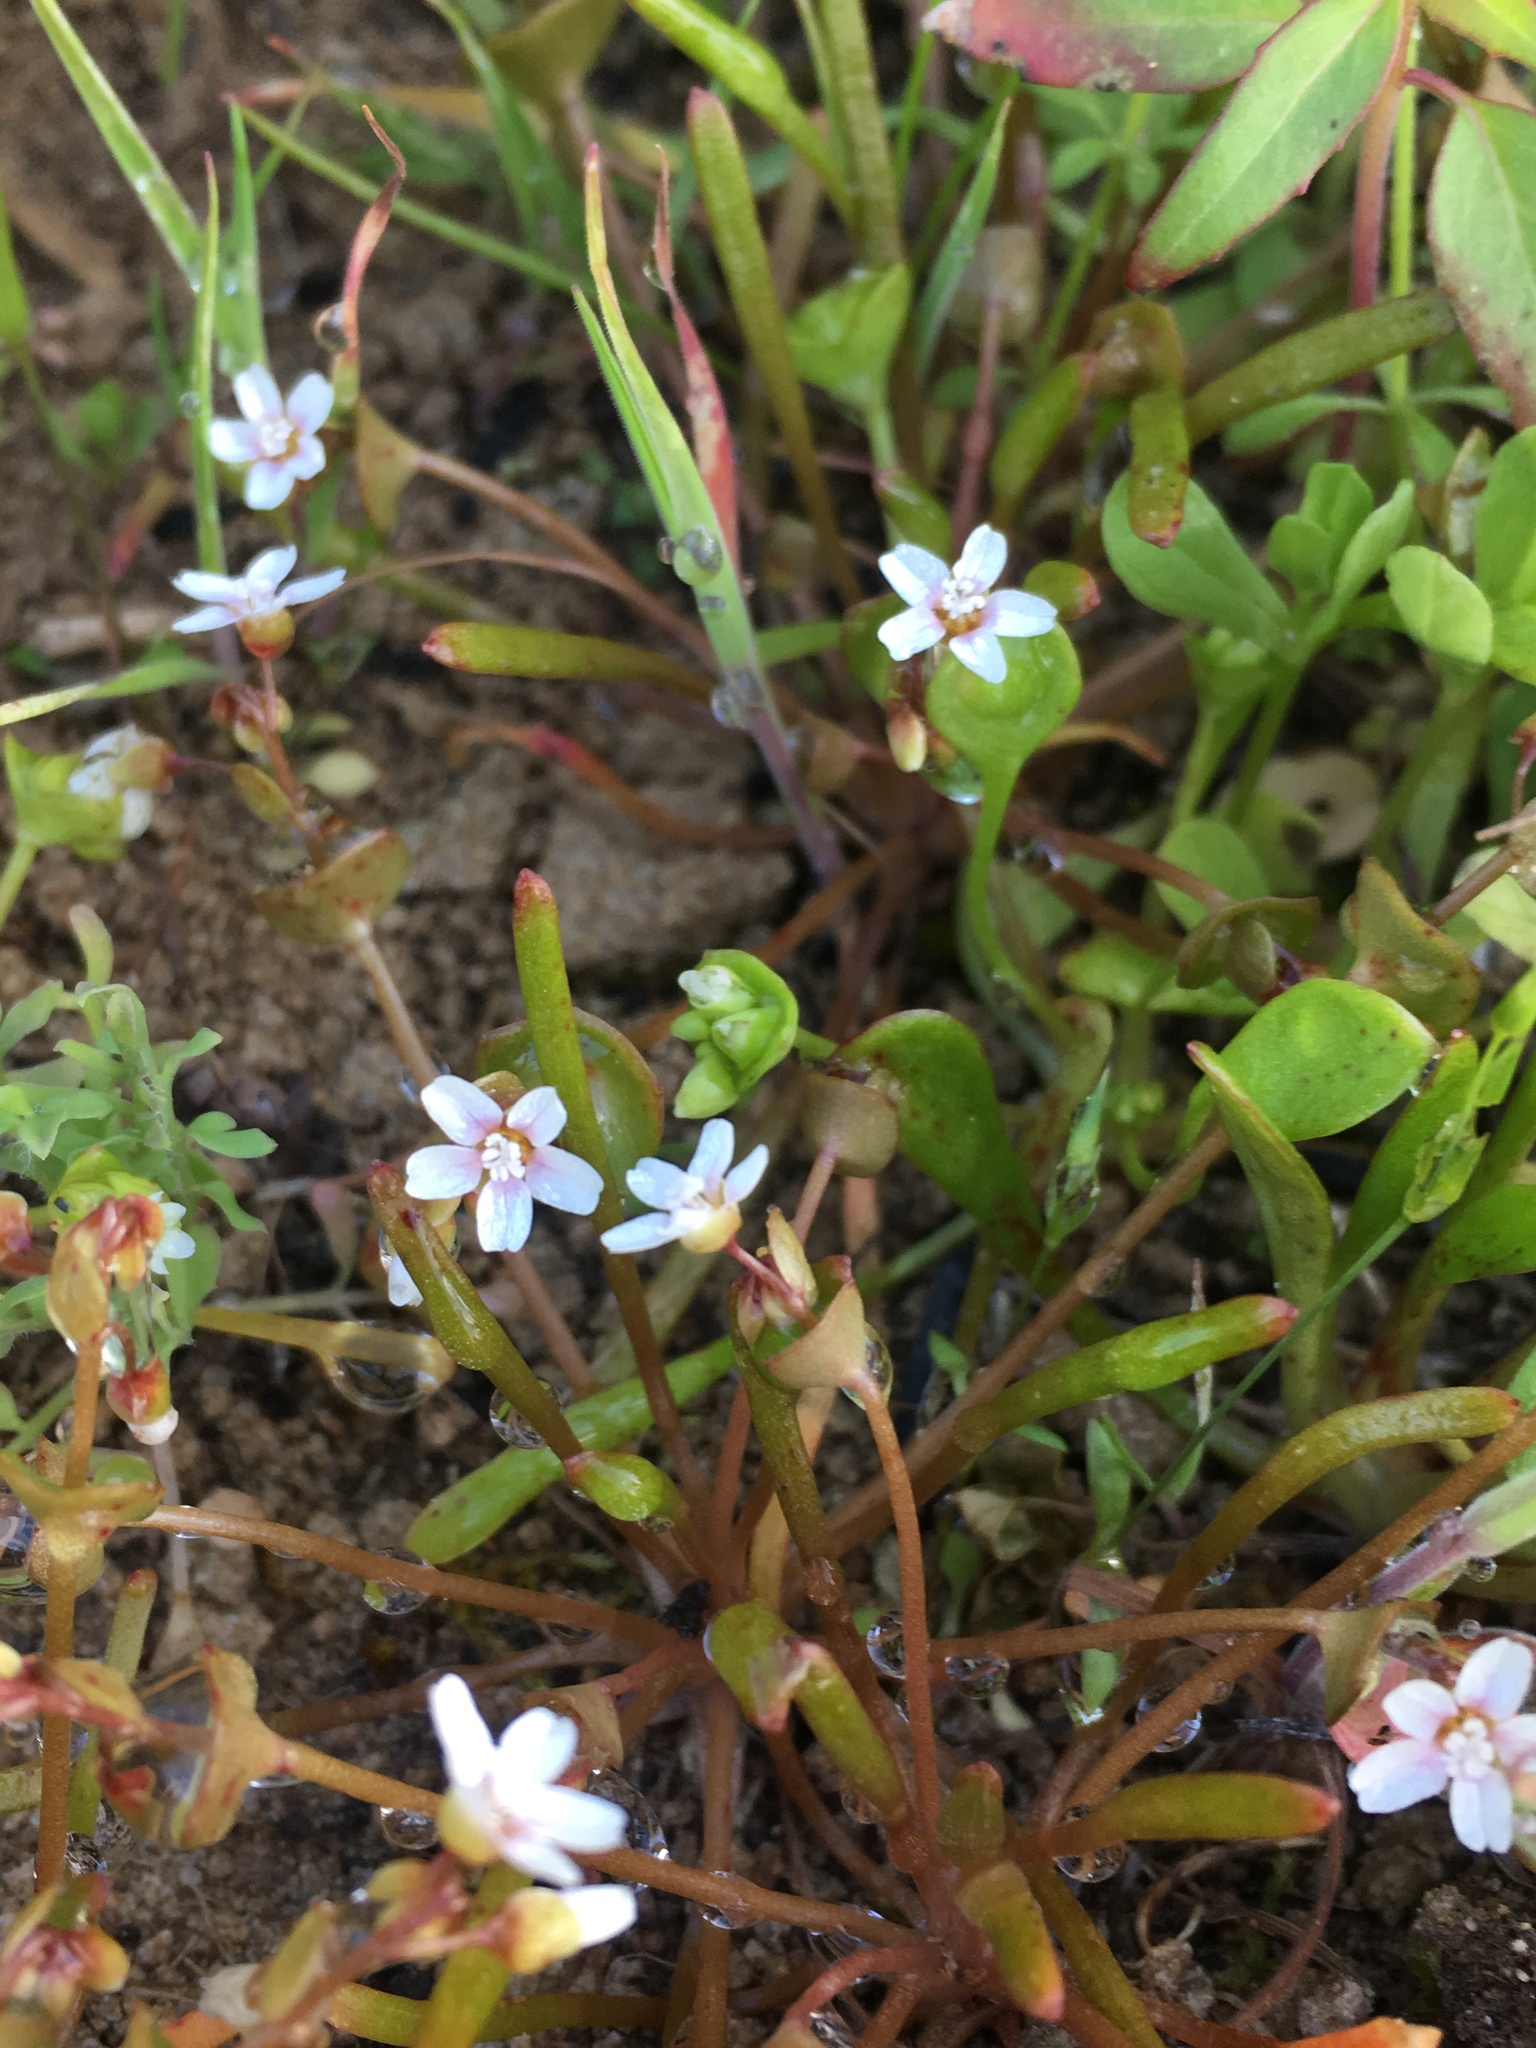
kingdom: Plantae
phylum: Tracheophyta
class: Magnoliopsida
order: Caryophyllales
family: Montiaceae
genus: Claytonia
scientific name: Claytonia parviflora
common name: Indian-lettuce
